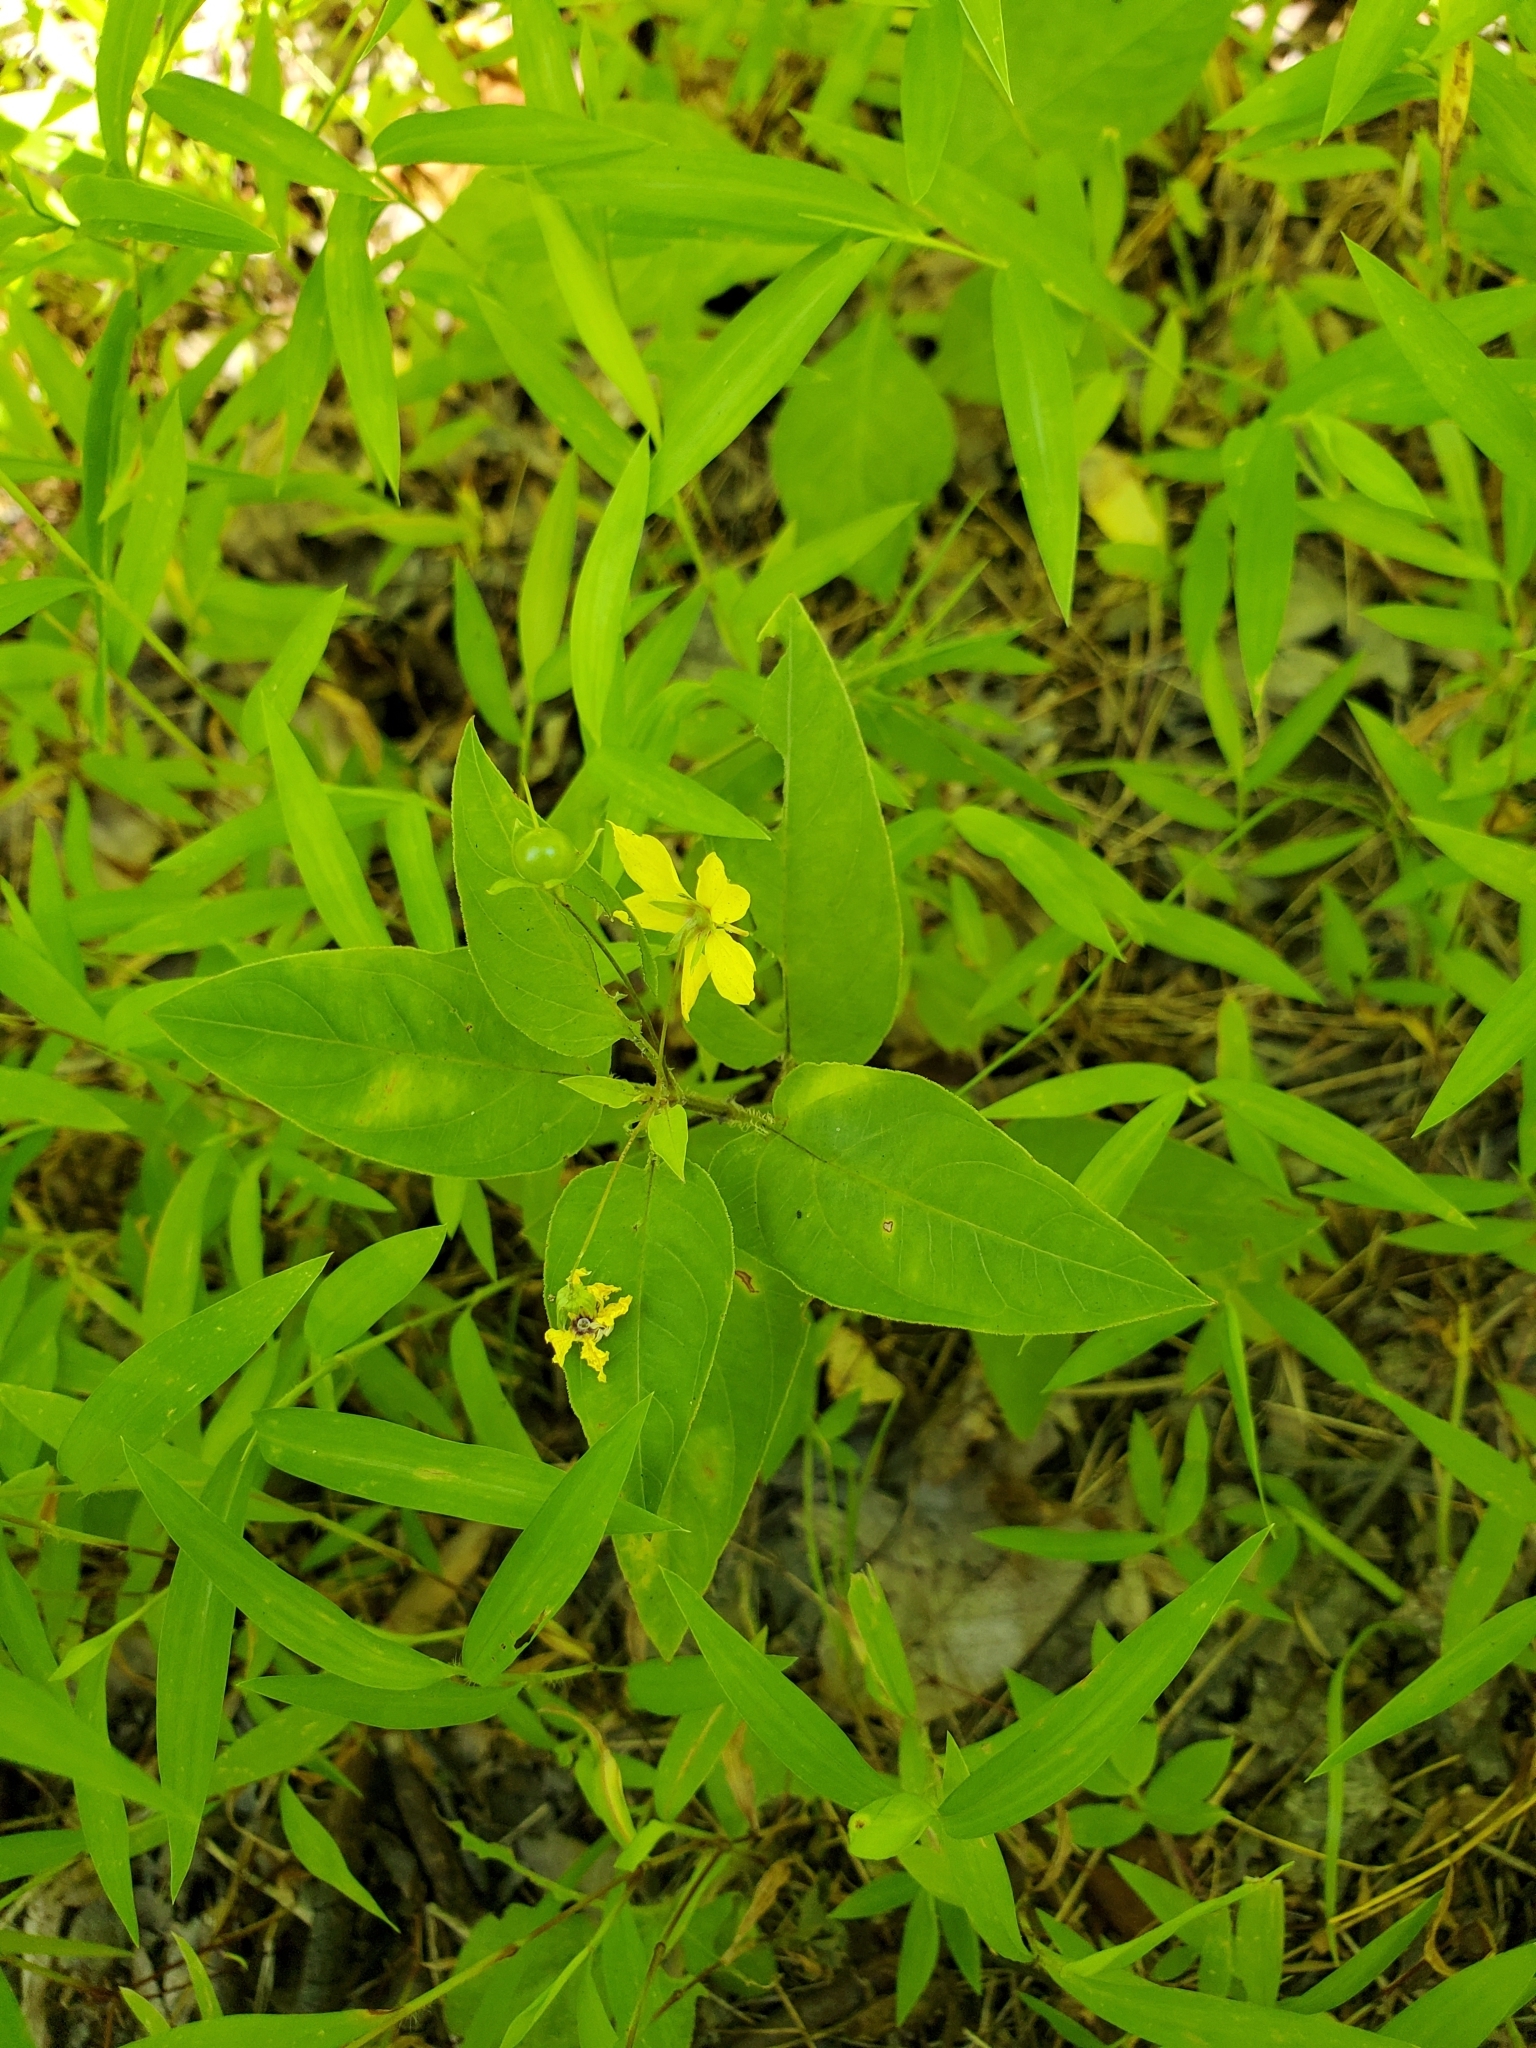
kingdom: Plantae
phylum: Tracheophyta
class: Magnoliopsida
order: Ericales
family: Primulaceae
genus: Lysimachia
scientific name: Lysimachia ciliata
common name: Fringed loosestrife
